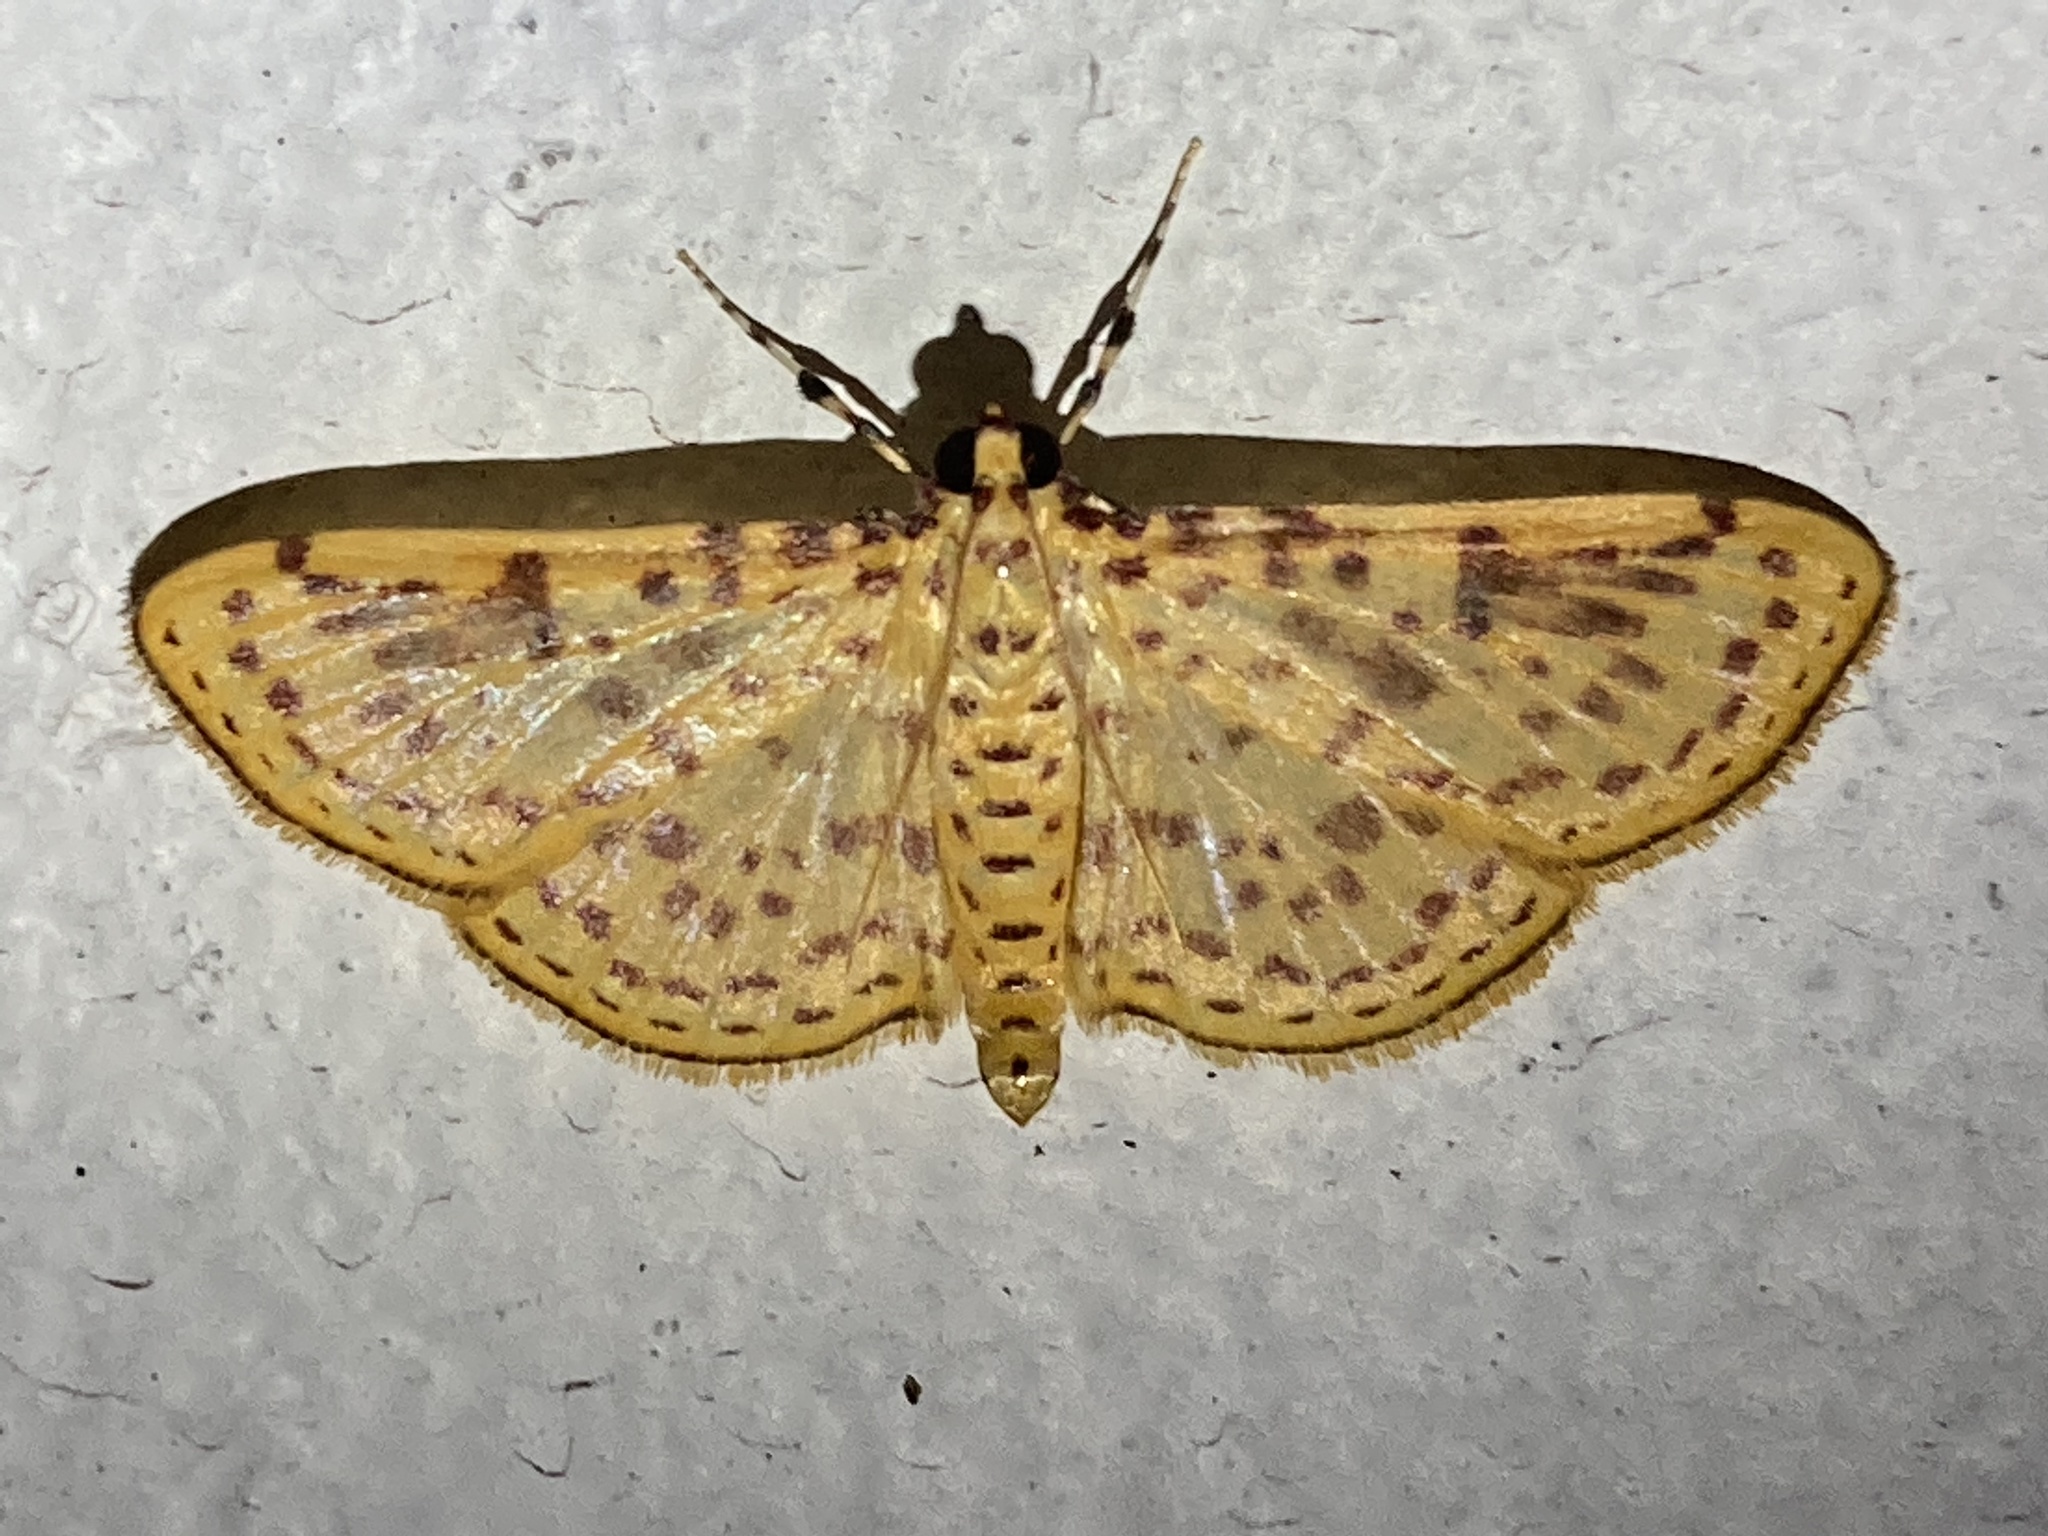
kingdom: Animalia
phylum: Arthropoda
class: Insecta
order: Lepidoptera
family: Crambidae
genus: Polygrammodes
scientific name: Polygrammodes elevata
